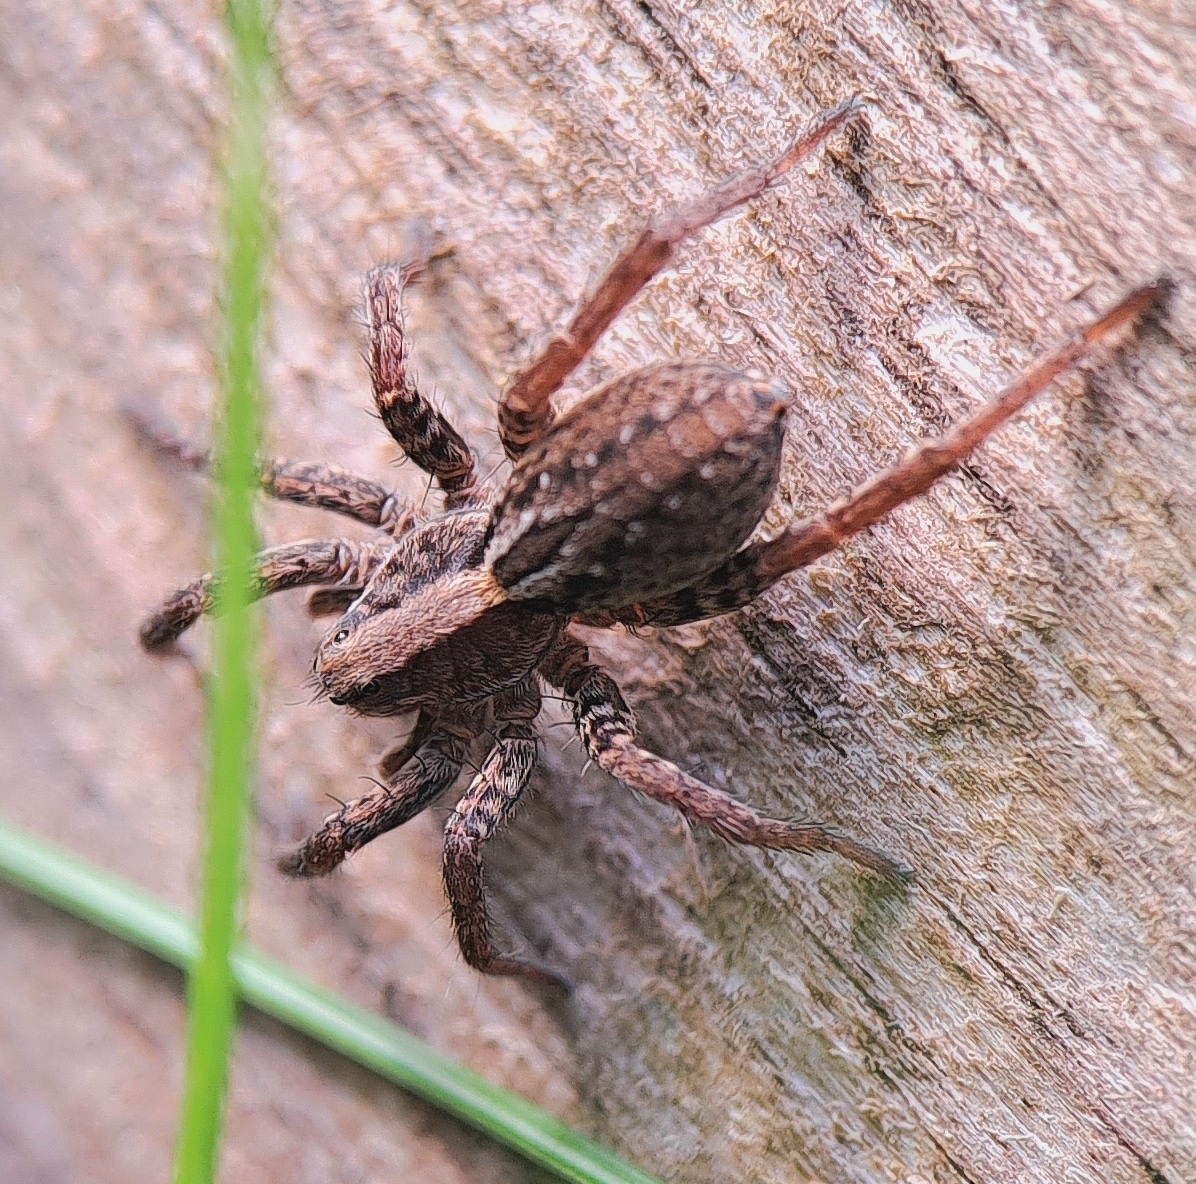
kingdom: Animalia
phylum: Arthropoda
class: Arachnida
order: Araneae
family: Lycosidae
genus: Alopecosa
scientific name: Alopecosa pulverulenta
